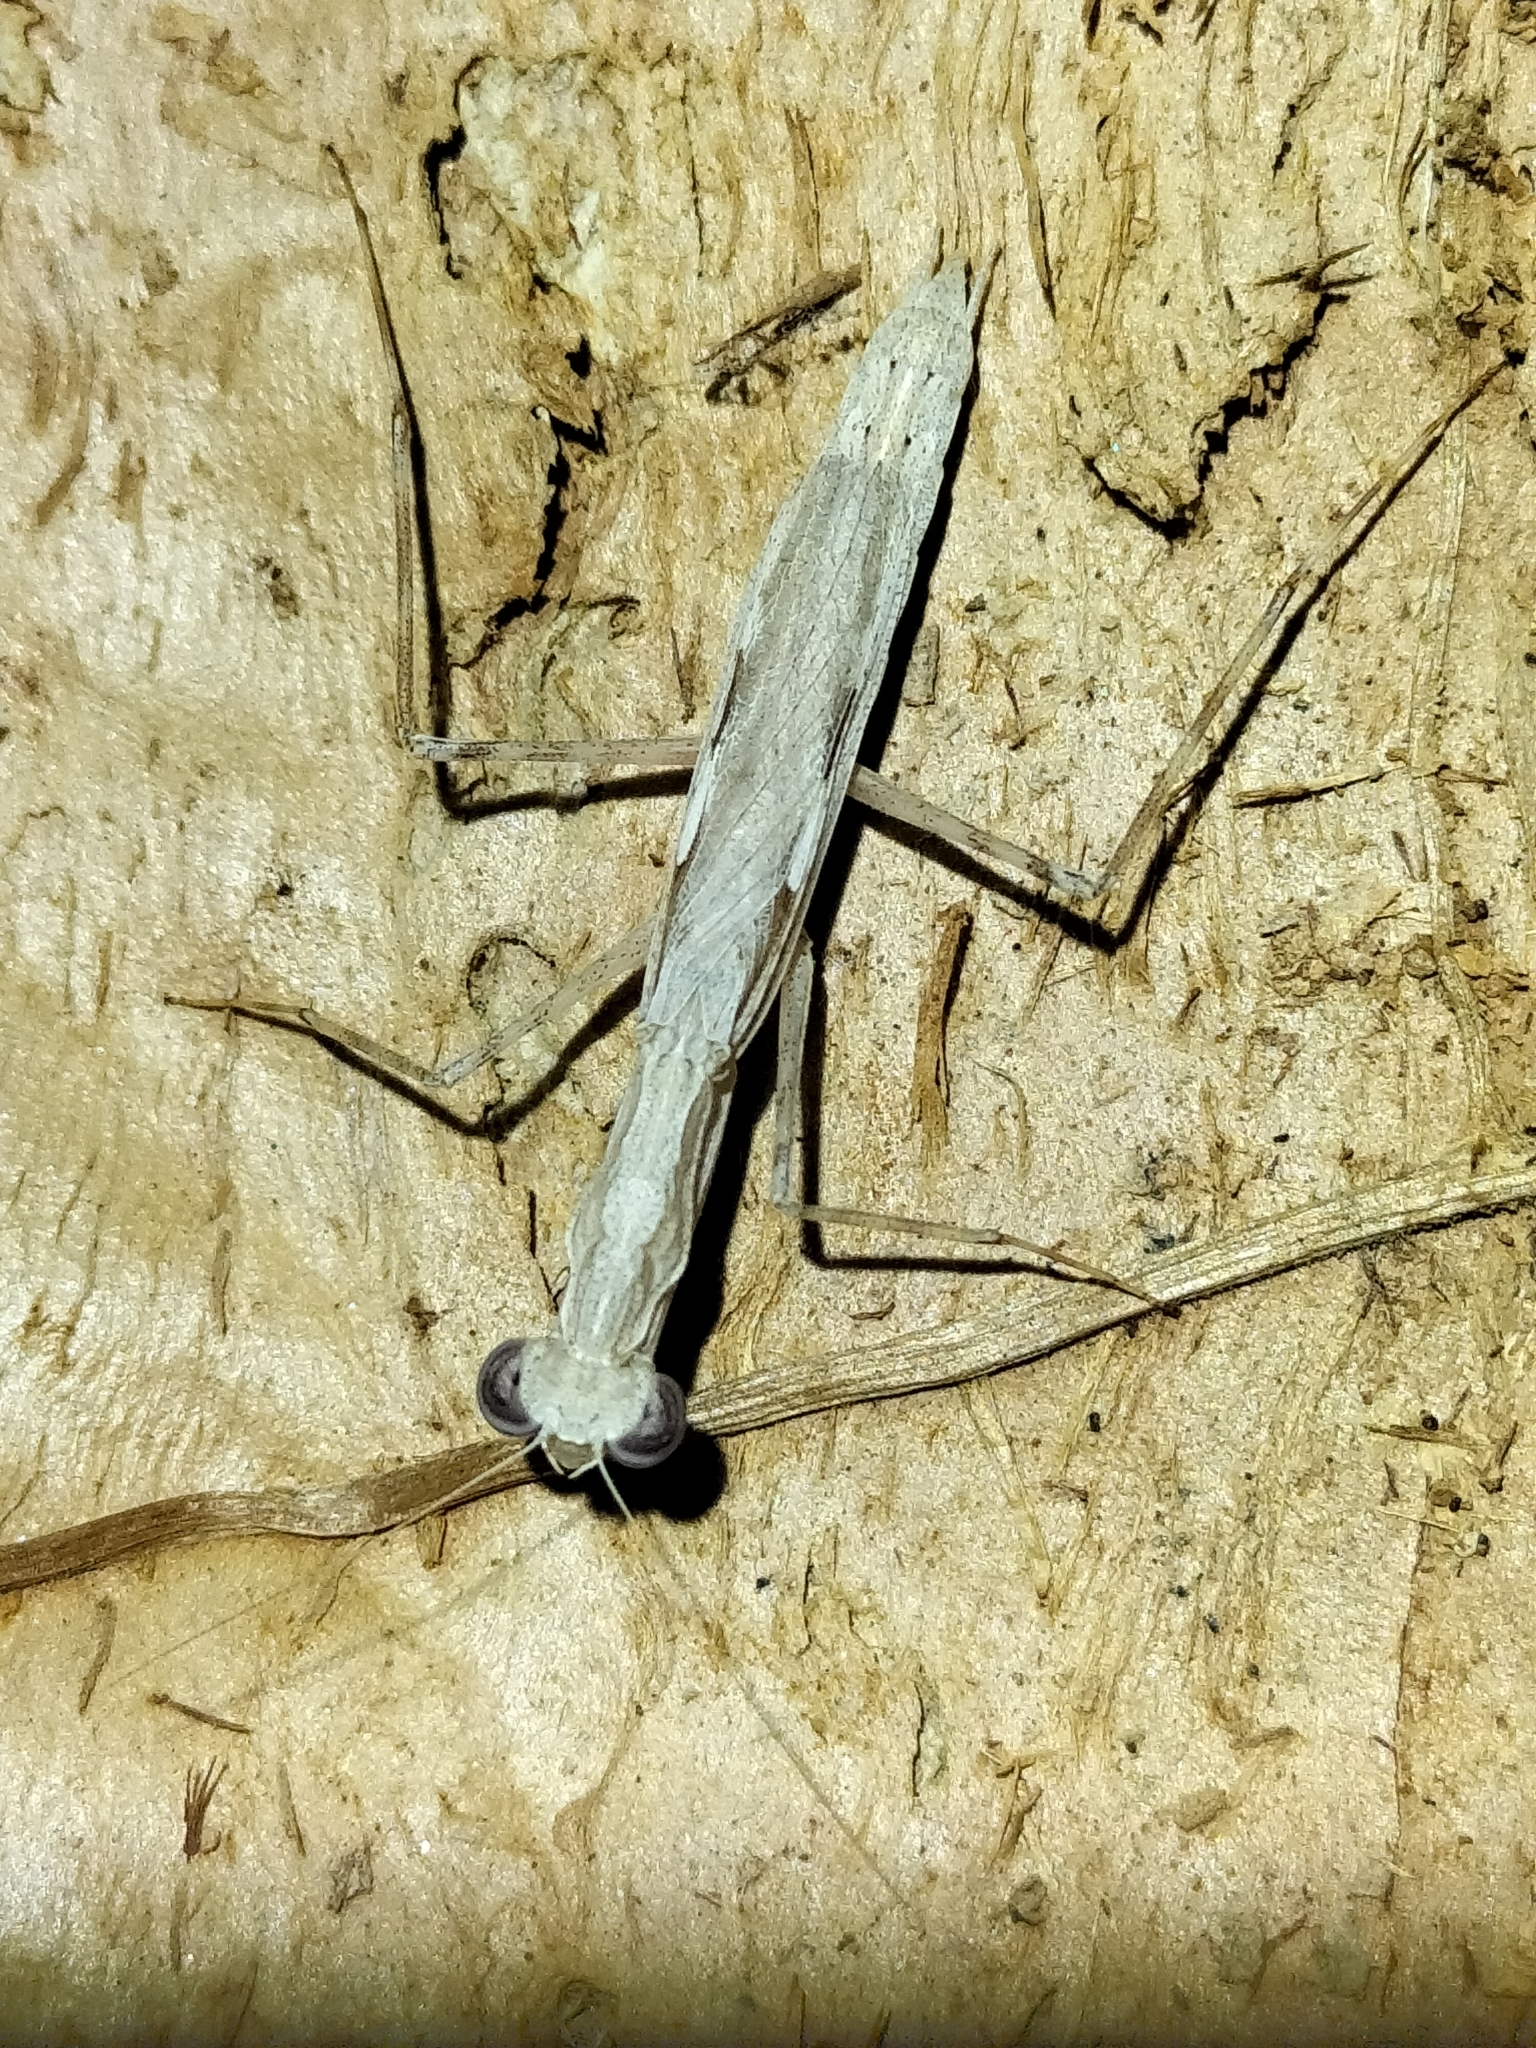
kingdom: Animalia
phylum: Arthropoda
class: Insecta
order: Mantodea
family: Nanomantidae
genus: Ima
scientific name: Ima fusca
